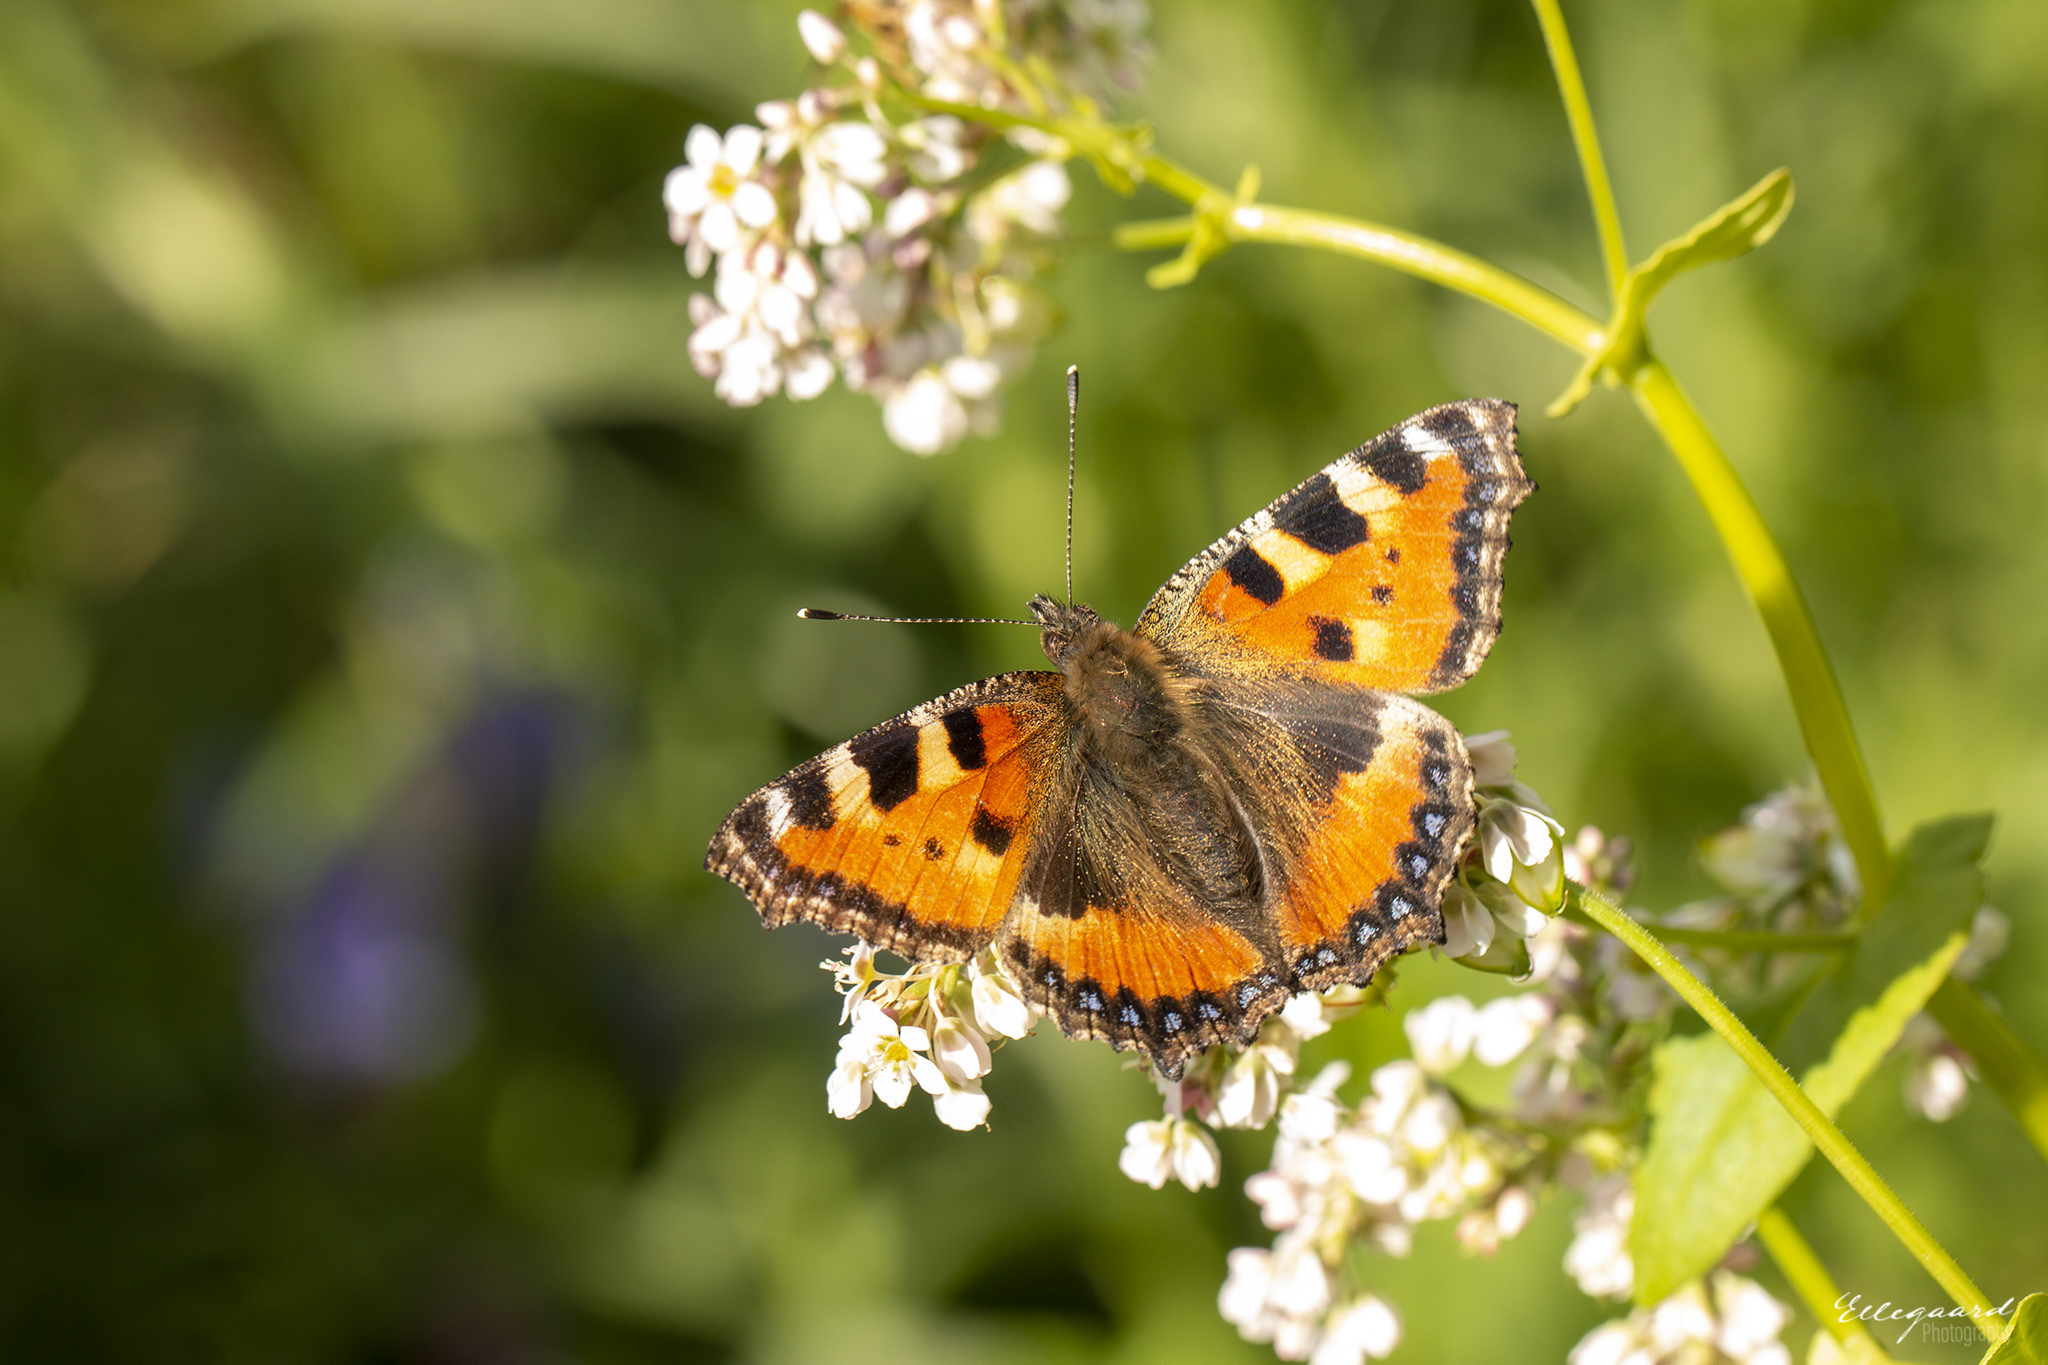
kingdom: Animalia
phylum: Arthropoda
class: Insecta
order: Lepidoptera
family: Nymphalidae
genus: Aglais
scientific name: Aglais urticae
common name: Small tortoiseshell
